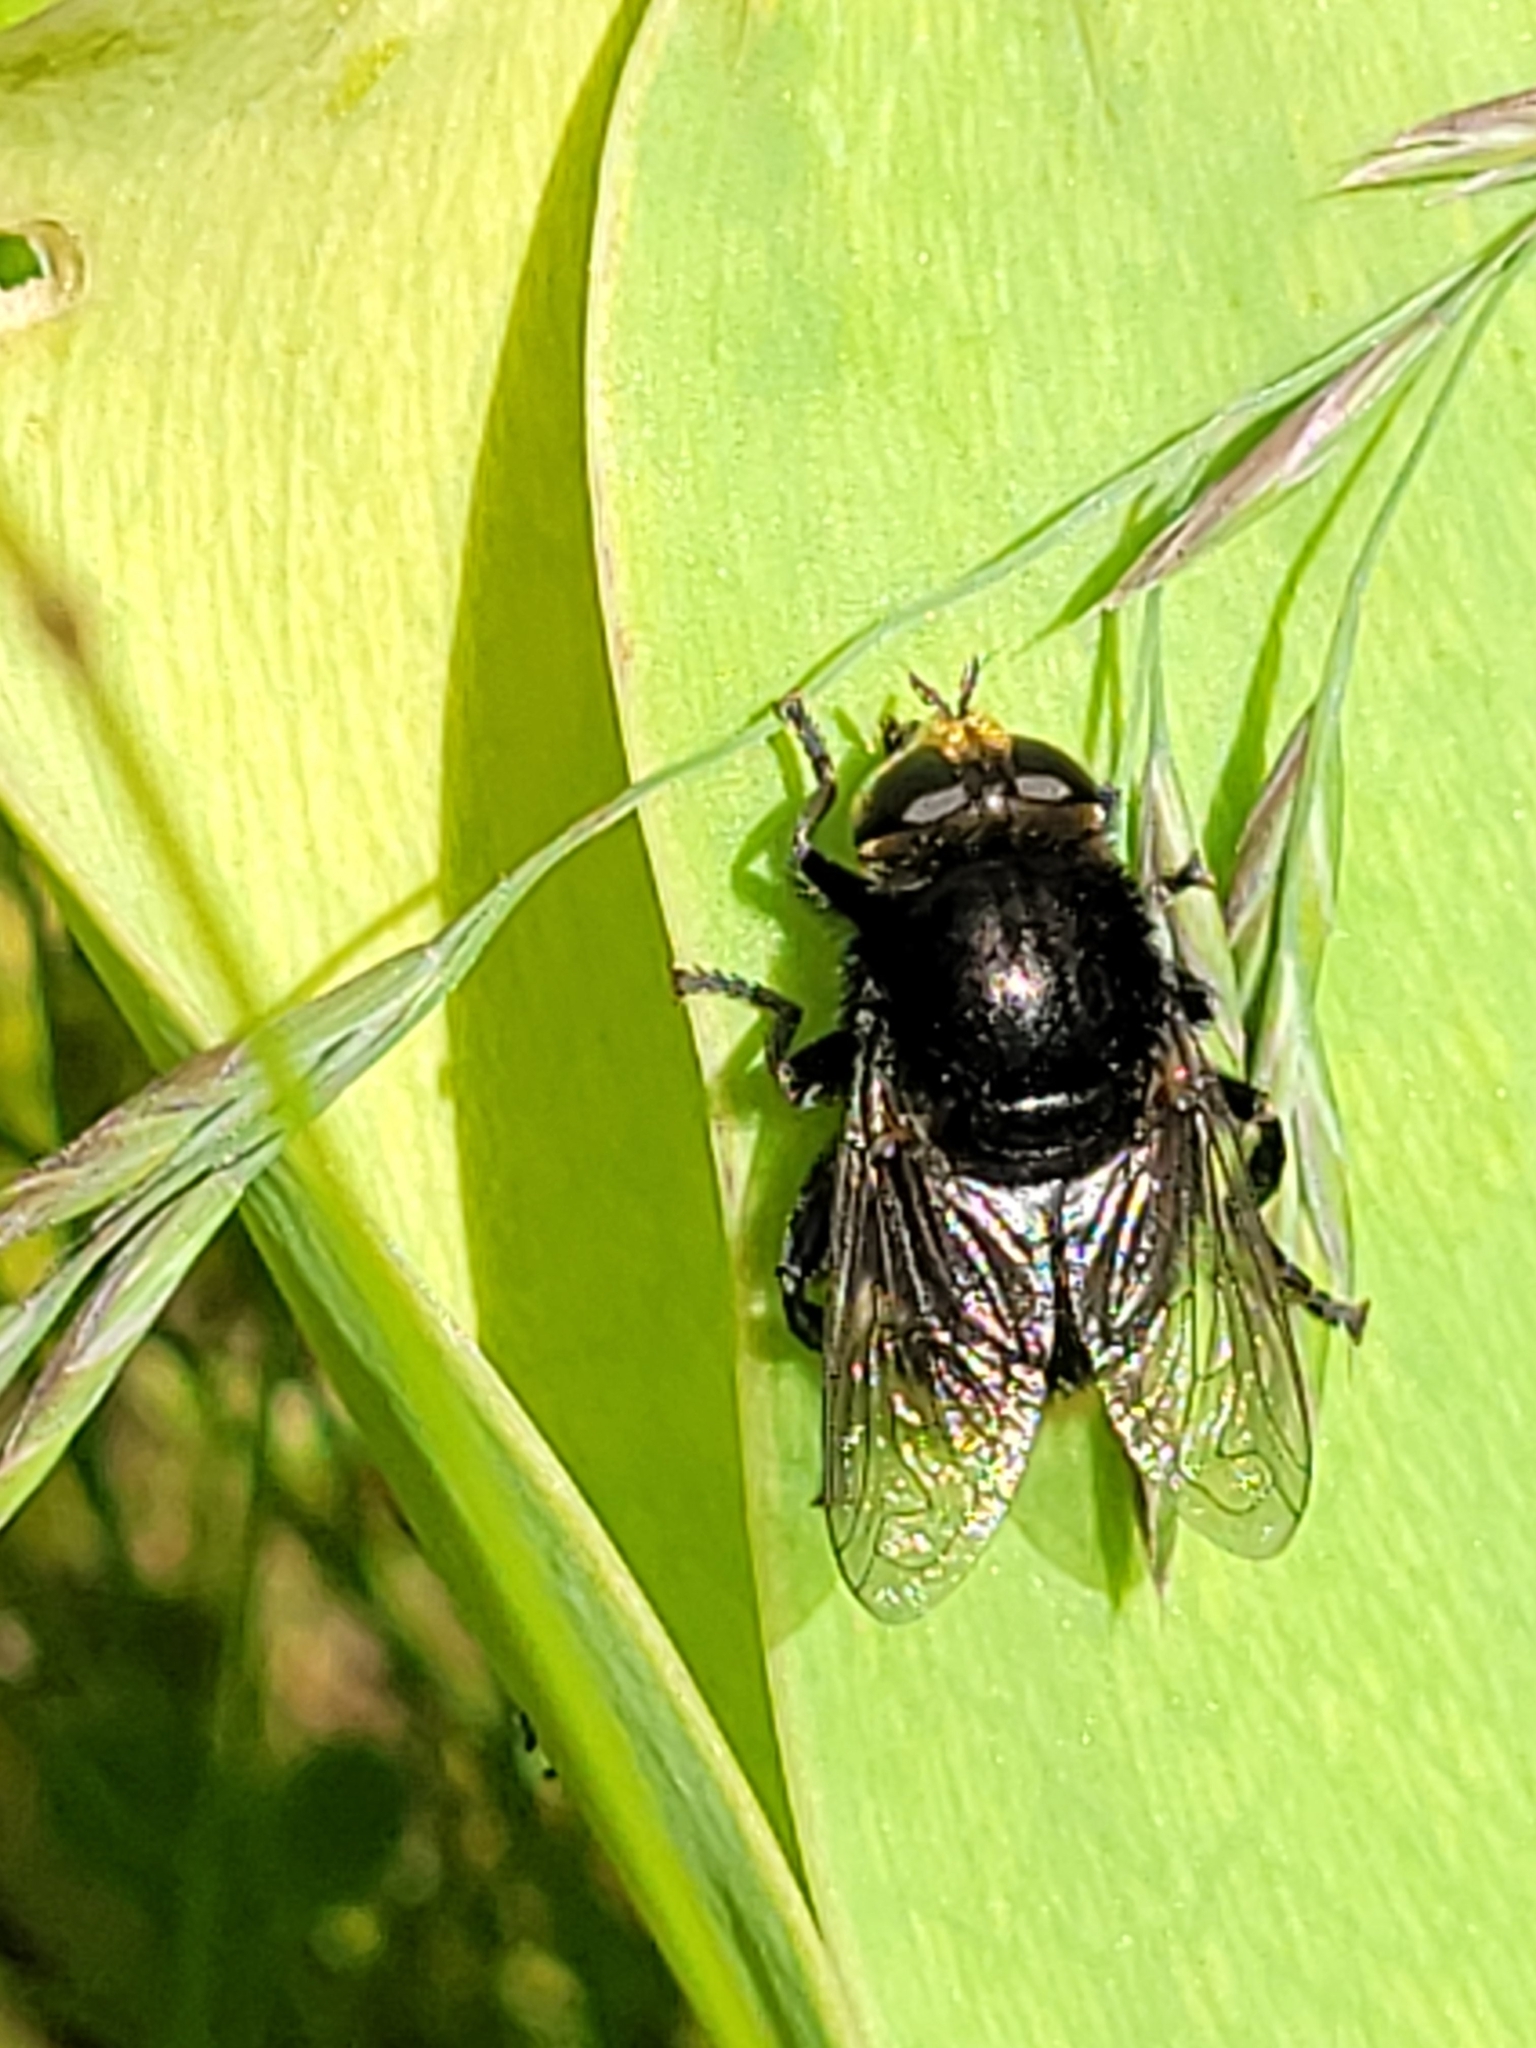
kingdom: Animalia
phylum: Arthropoda
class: Insecta
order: Diptera
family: Syrphidae
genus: Merodon
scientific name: Merodon equestris
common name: Greater bulb-fly
